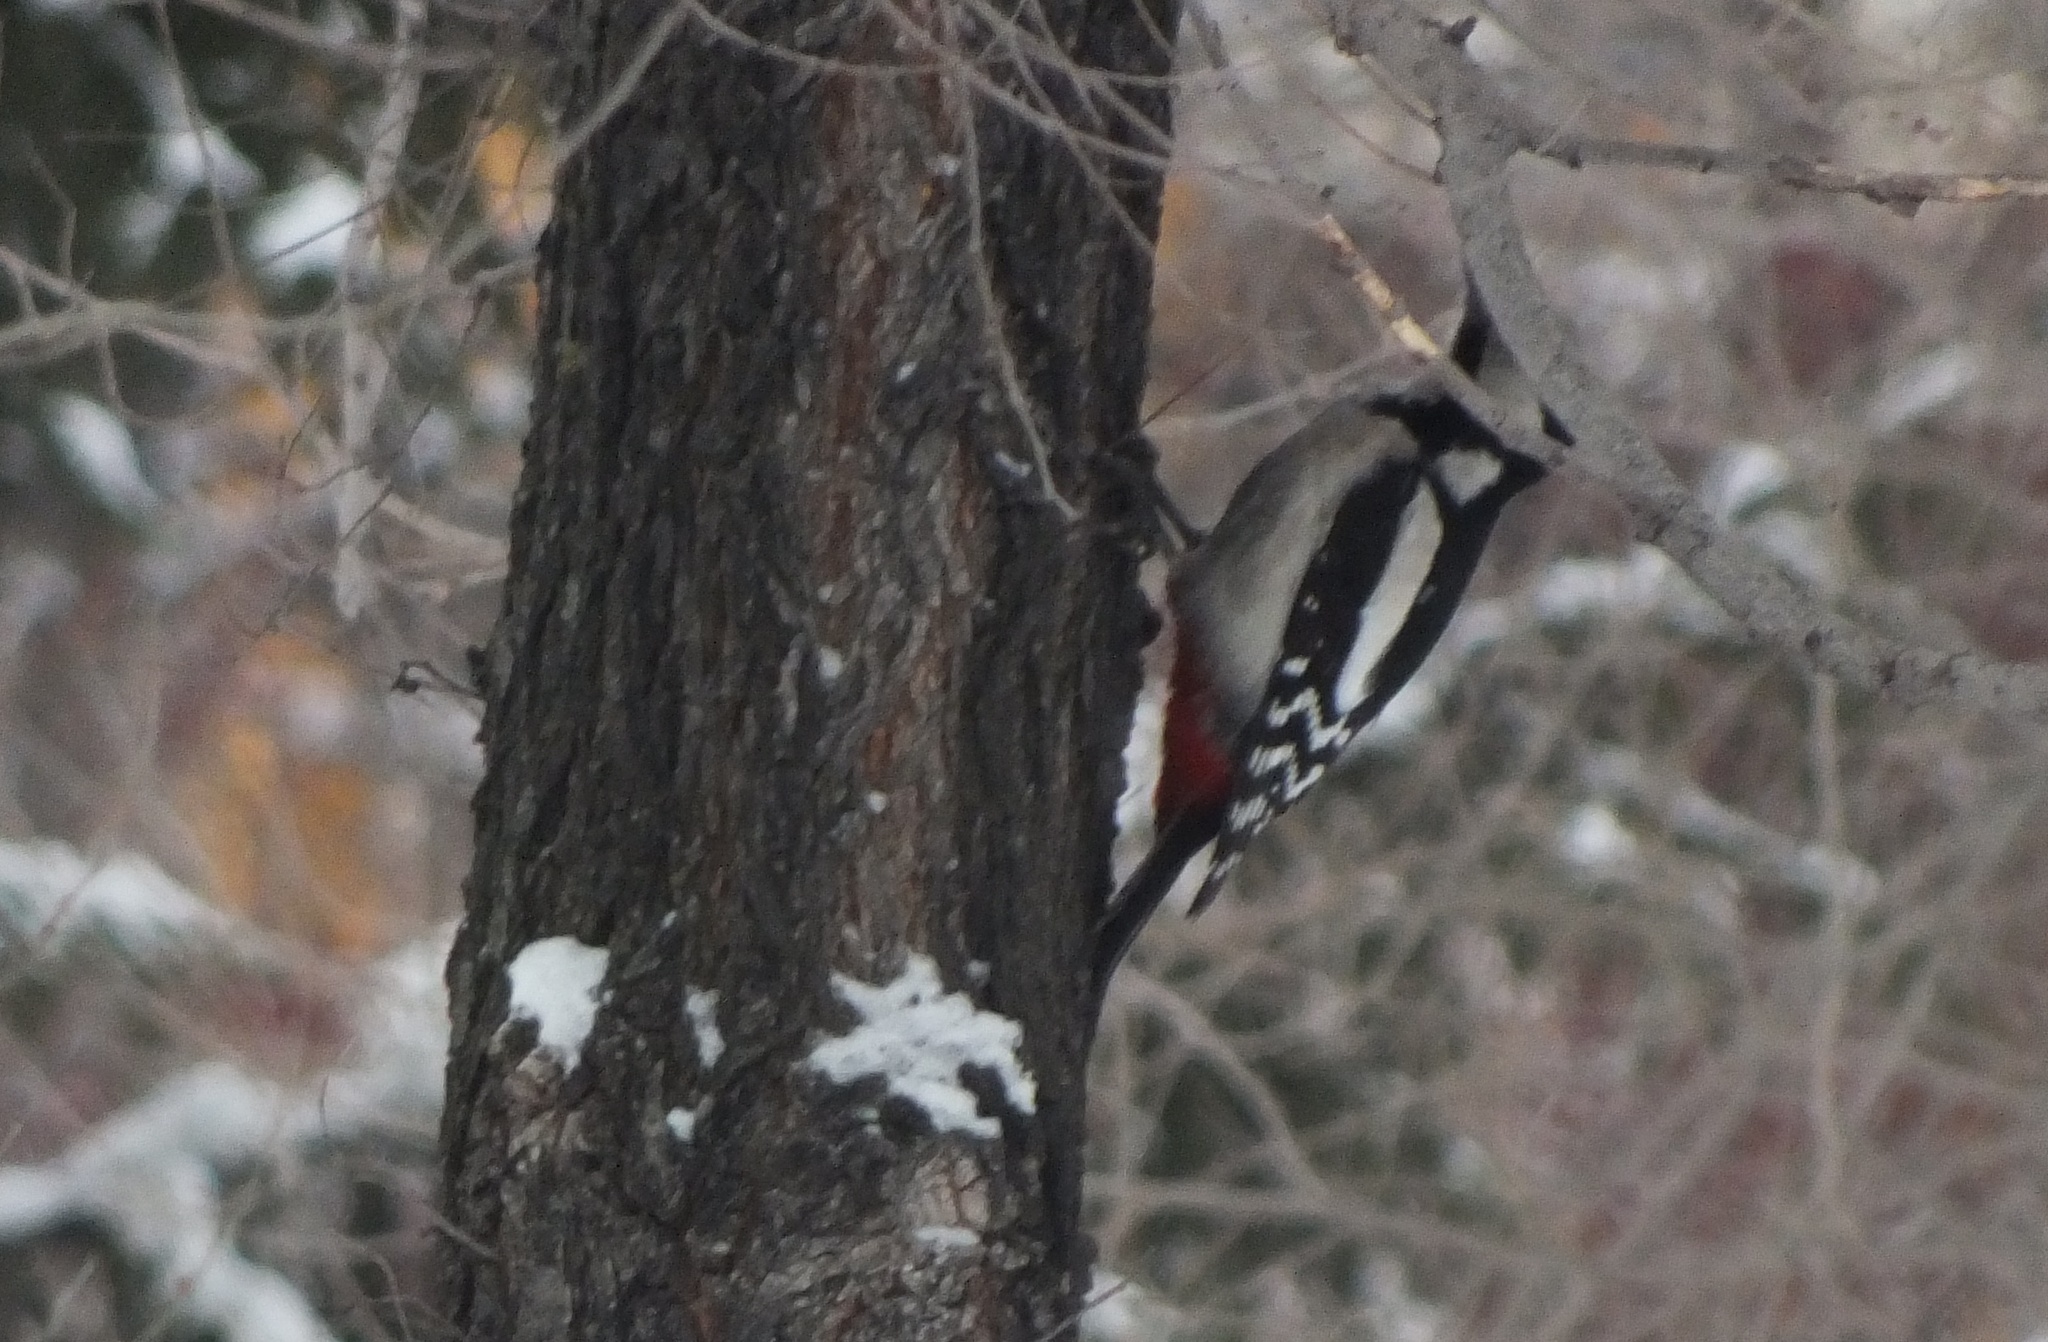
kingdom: Animalia
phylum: Chordata
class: Aves
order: Piciformes
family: Picidae
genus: Dendrocopos
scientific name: Dendrocopos major
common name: Great spotted woodpecker
